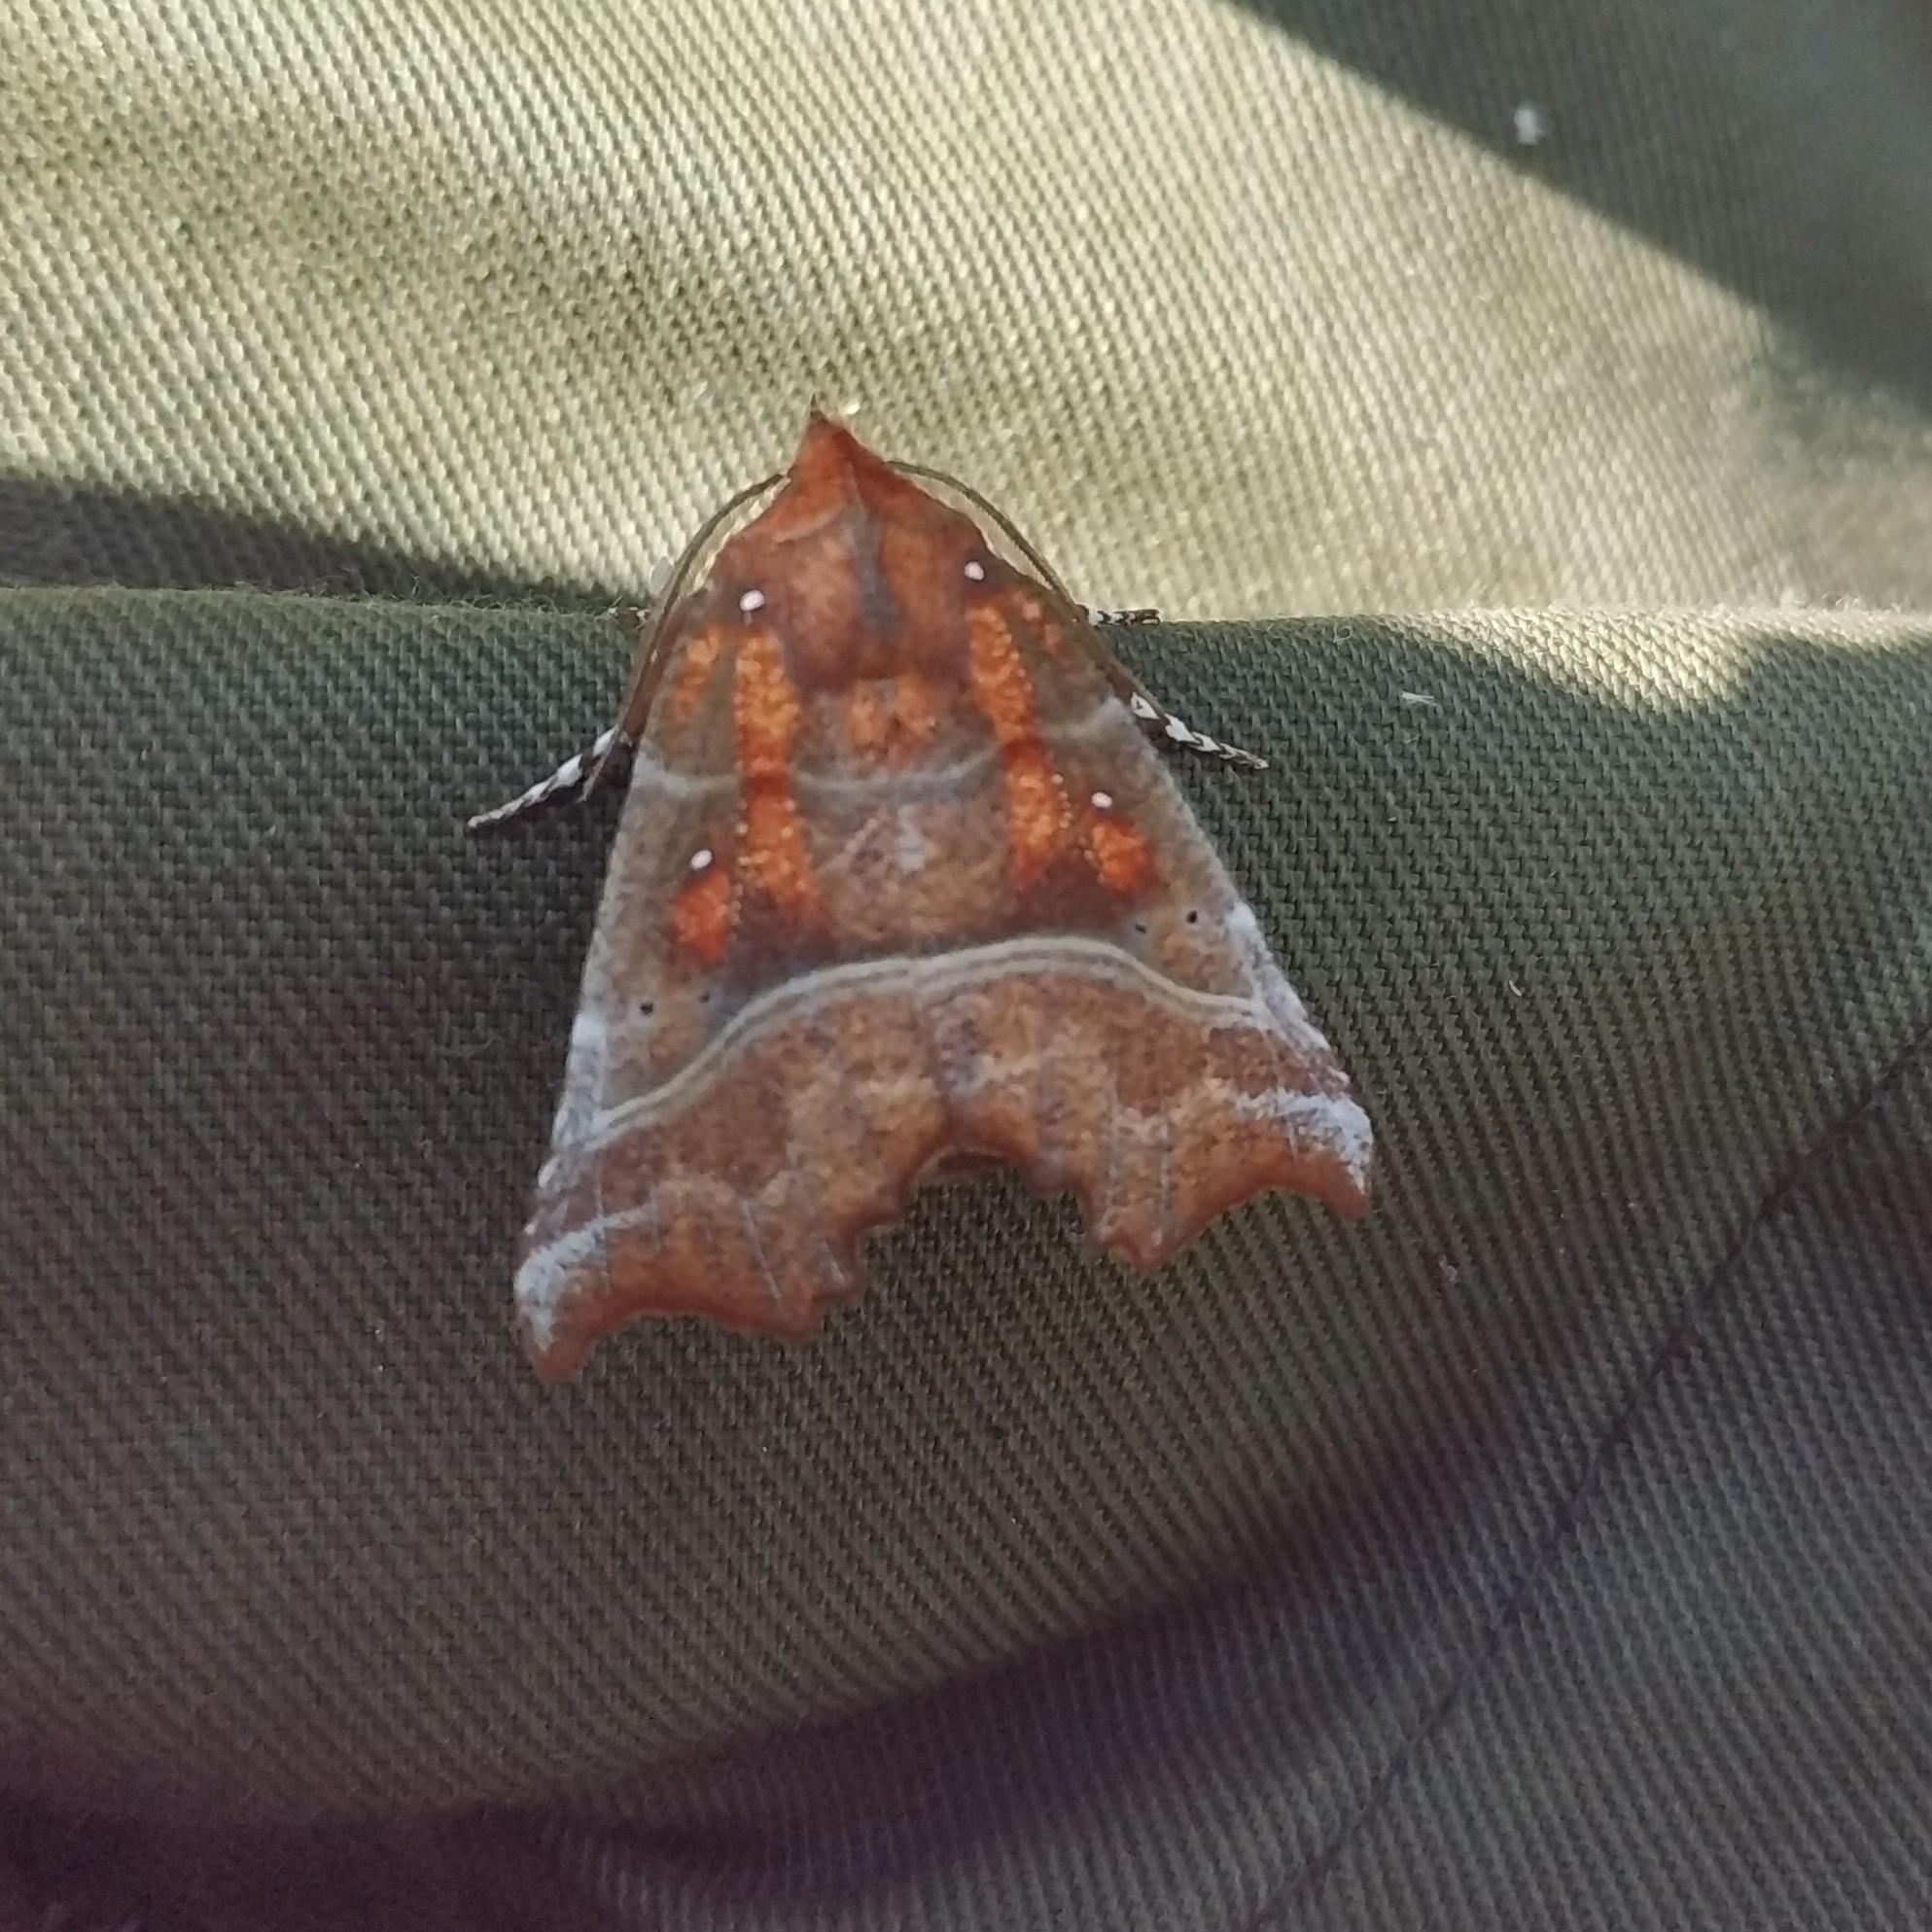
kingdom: Animalia
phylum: Arthropoda
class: Insecta
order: Lepidoptera
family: Erebidae
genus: Scoliopteryx
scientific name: Scoliopteryx libatrix
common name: Herald
